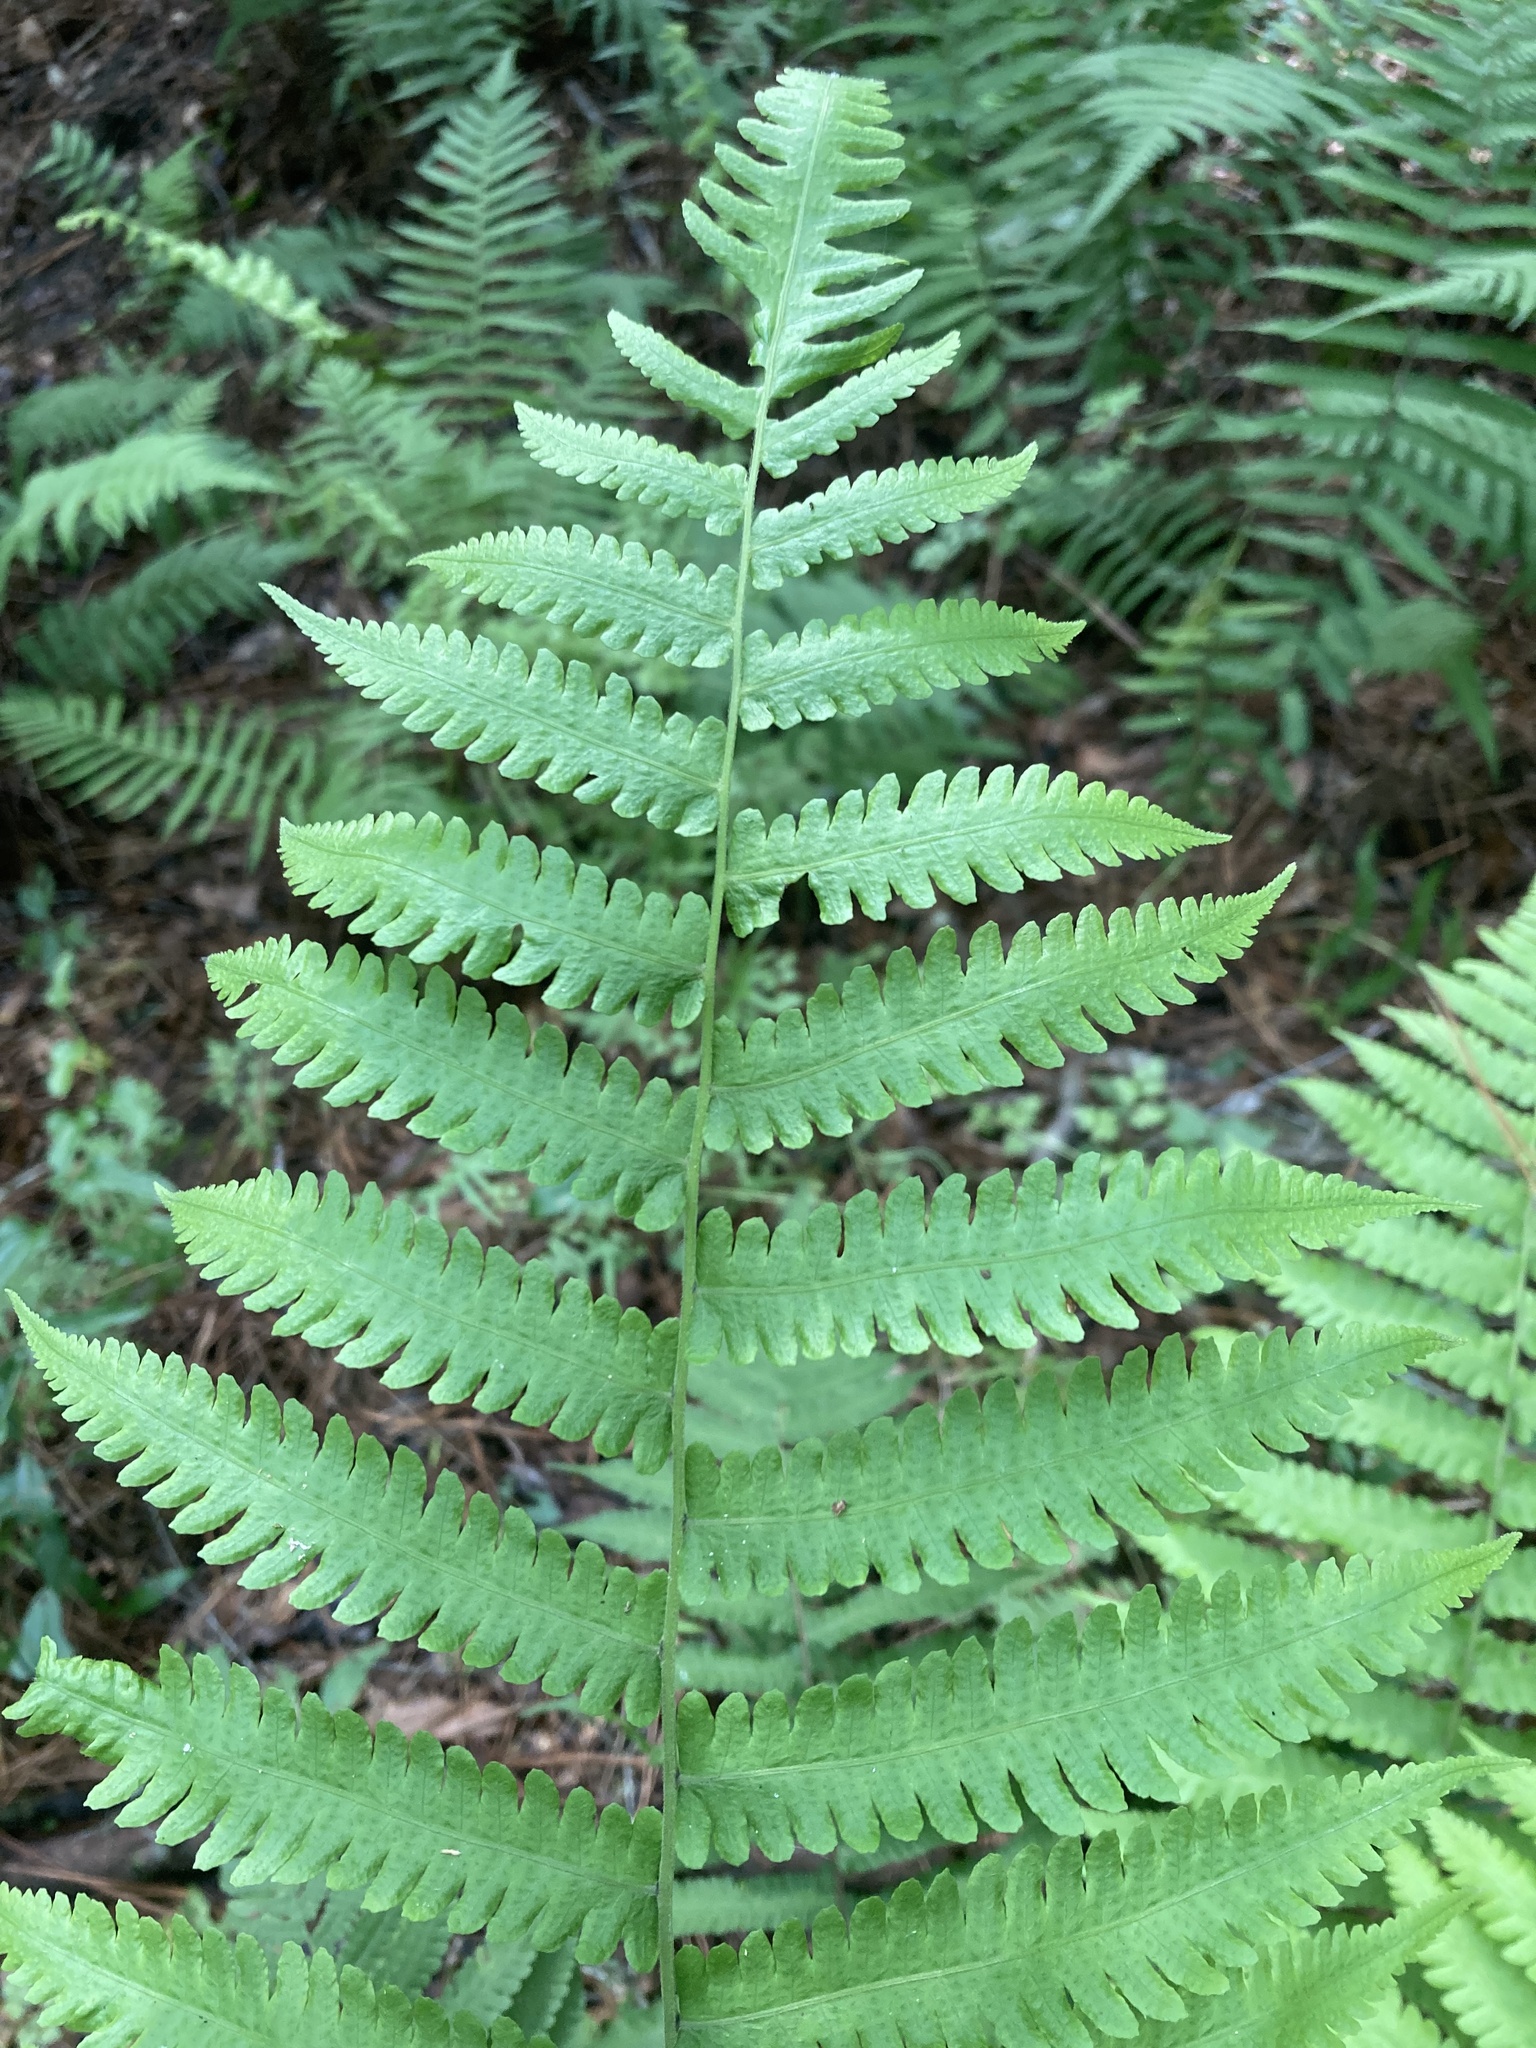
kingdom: Plantae
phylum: Tracheophyta
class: Polypodiopsida
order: Polypodiales
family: Thelypteridaceae
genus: Christella
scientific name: Christella dentata
